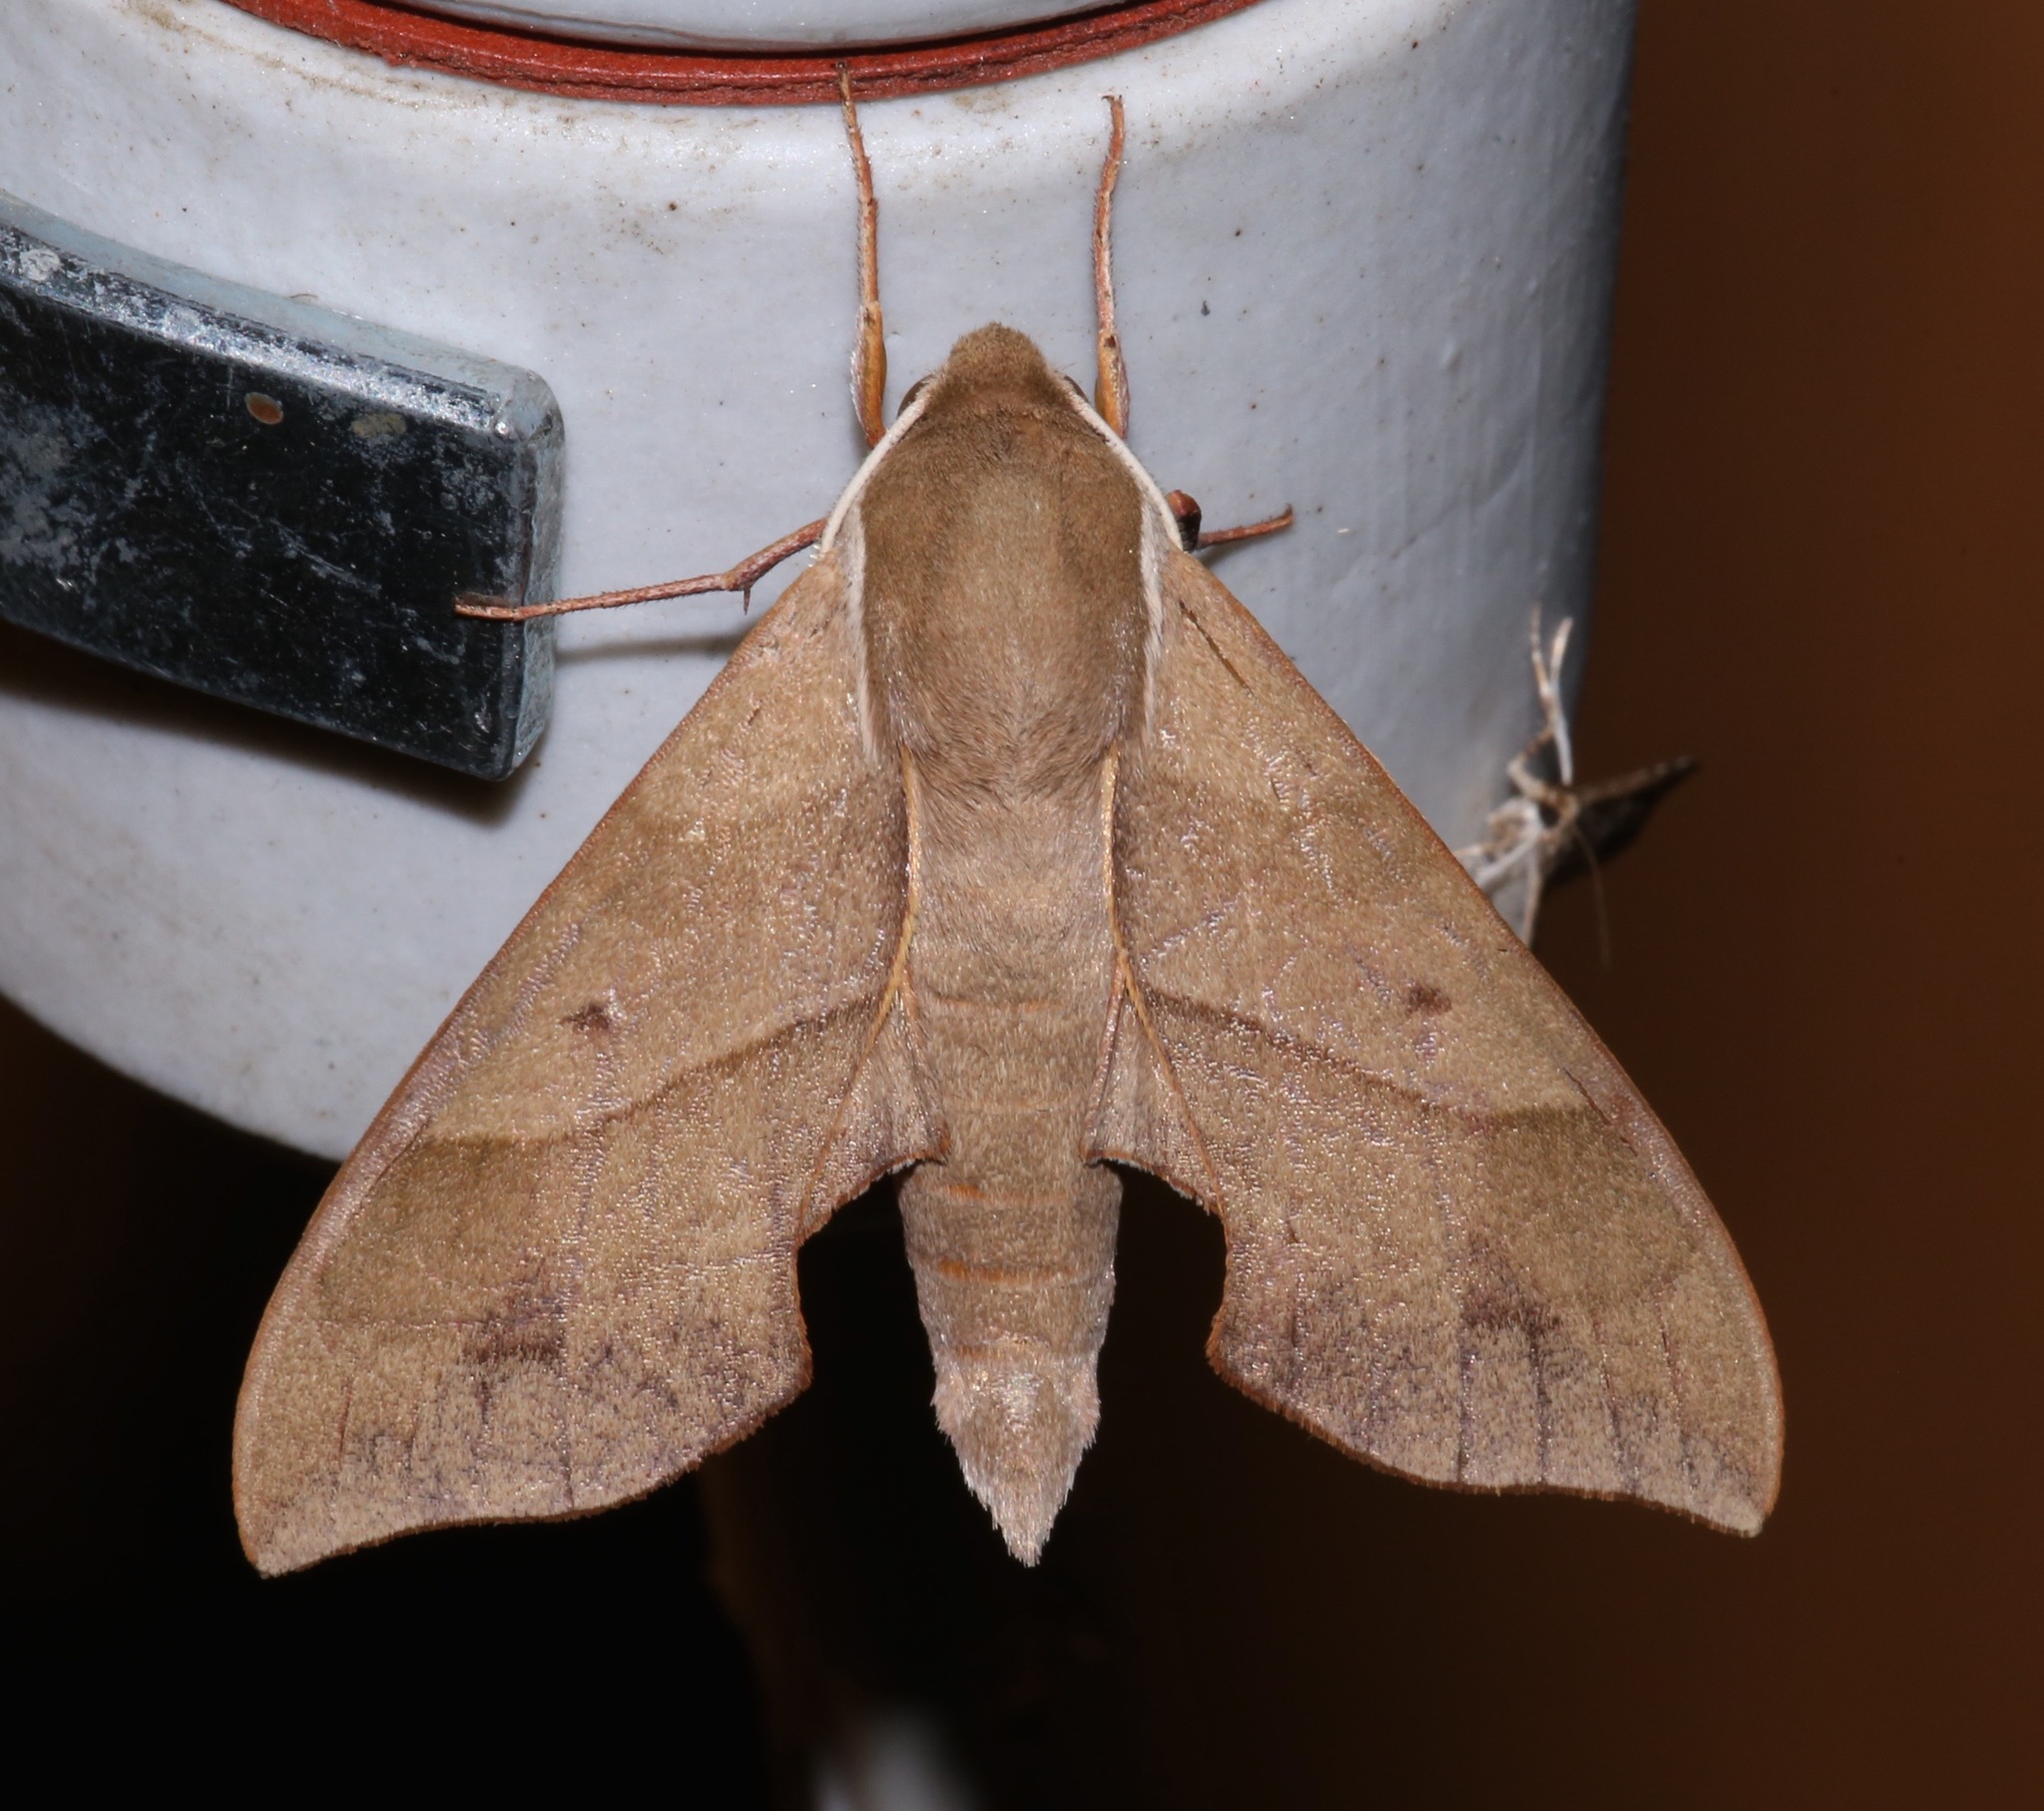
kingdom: Animalia
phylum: Arthropoda
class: Insecta
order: Lepidoptera
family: Sphingidae
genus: Darapsa
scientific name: Darapsa myron
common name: Hog sphinx
